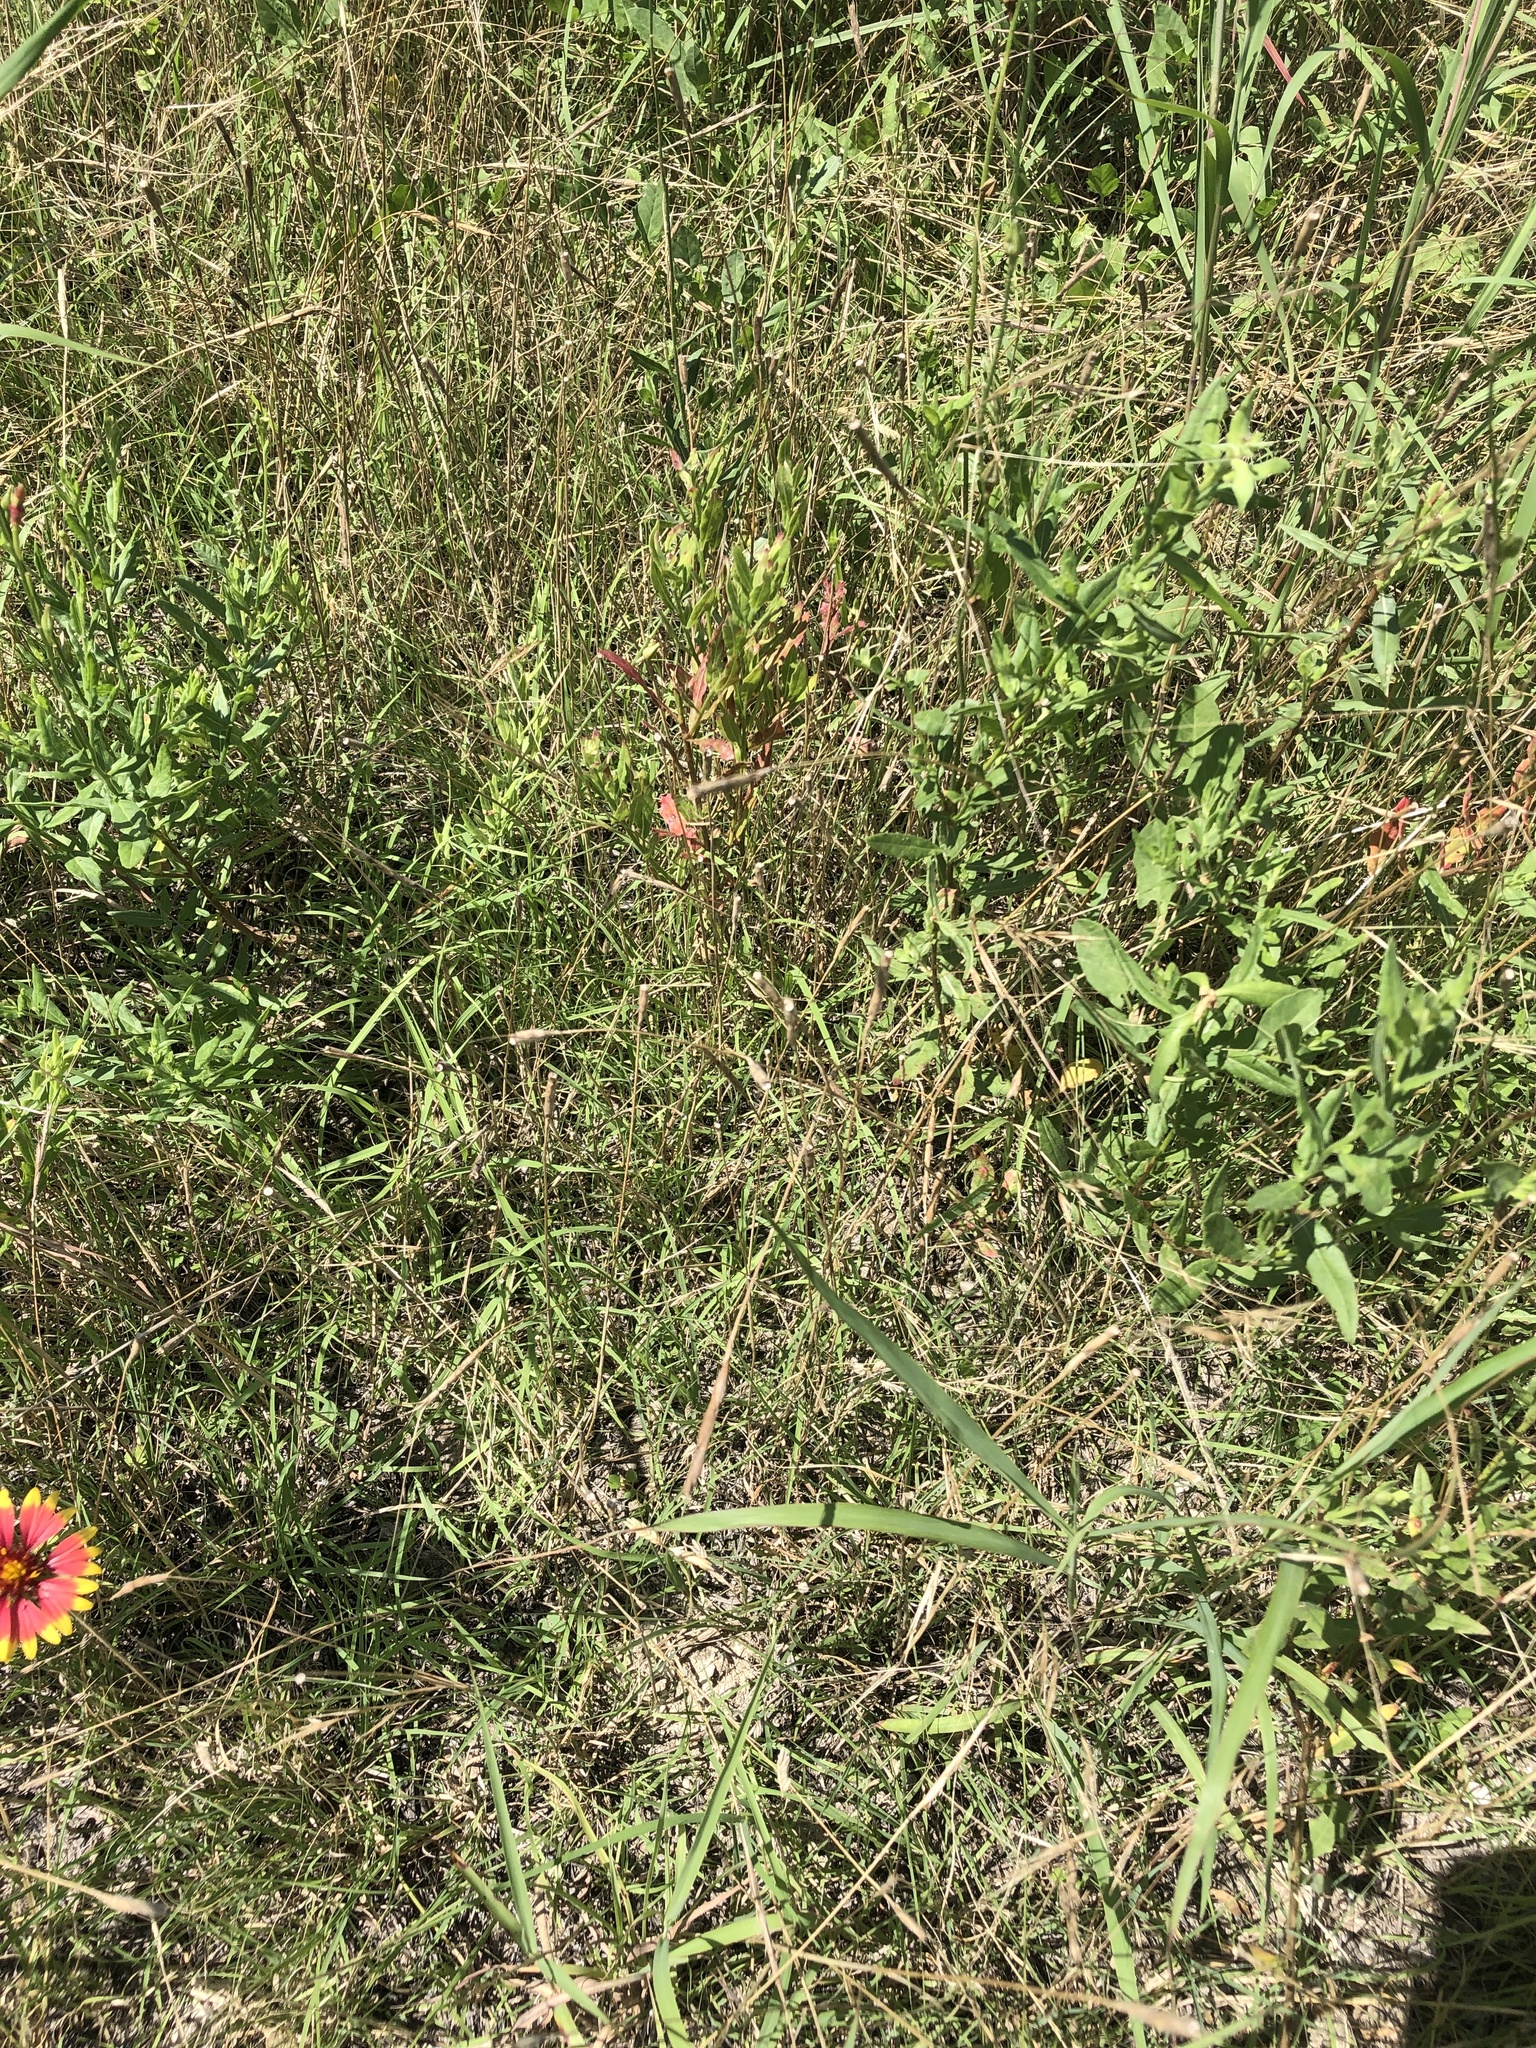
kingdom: Plantae
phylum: Tracheophyta
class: Liliopsida
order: Poales
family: Poaceae
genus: Aegilops
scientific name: Aegilops cylindrica
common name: Jointed goatgrass
